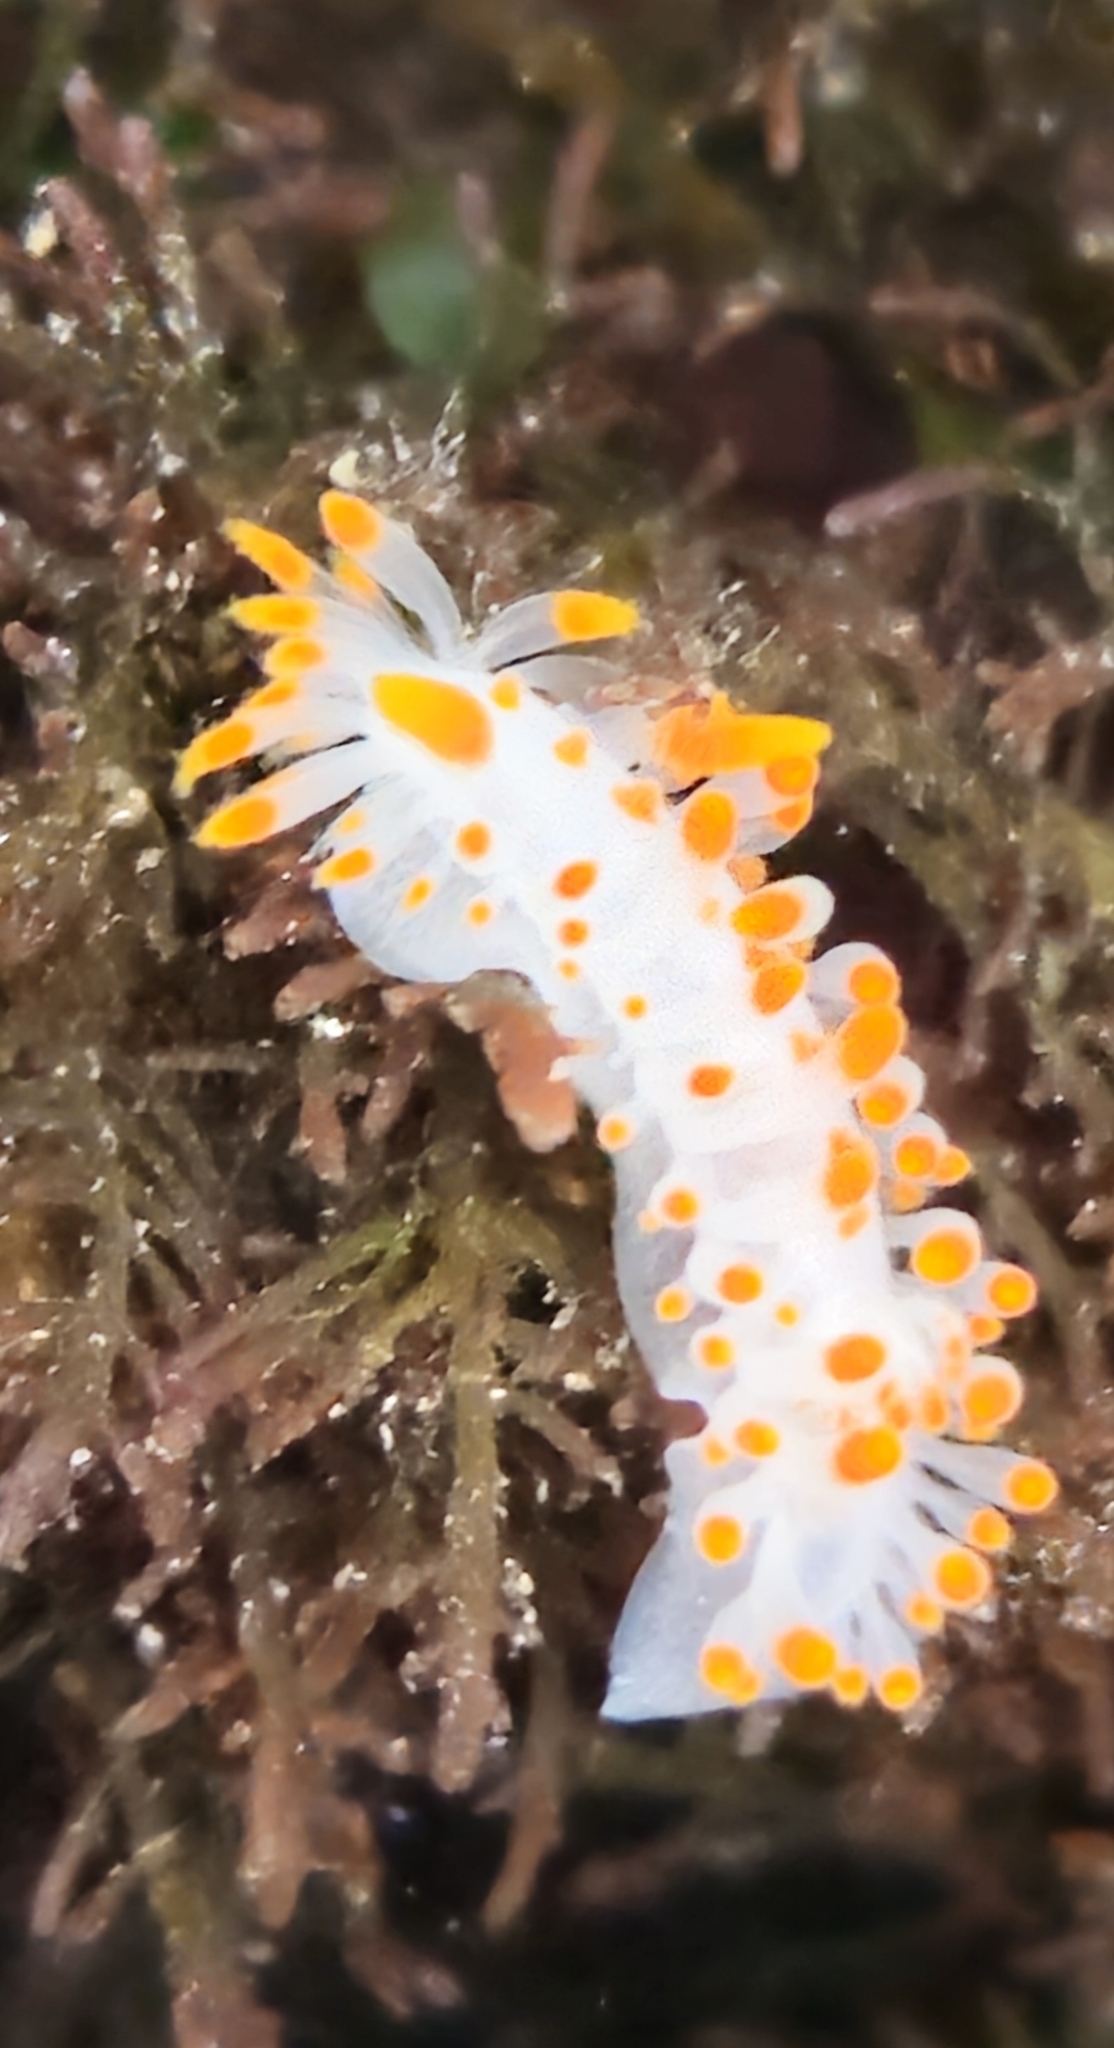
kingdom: Animalia
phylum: Mollusca
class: Gastropoda
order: Nudibranchia
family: Polyceridae
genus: Limacia
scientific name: Limacia mcdonaldi
